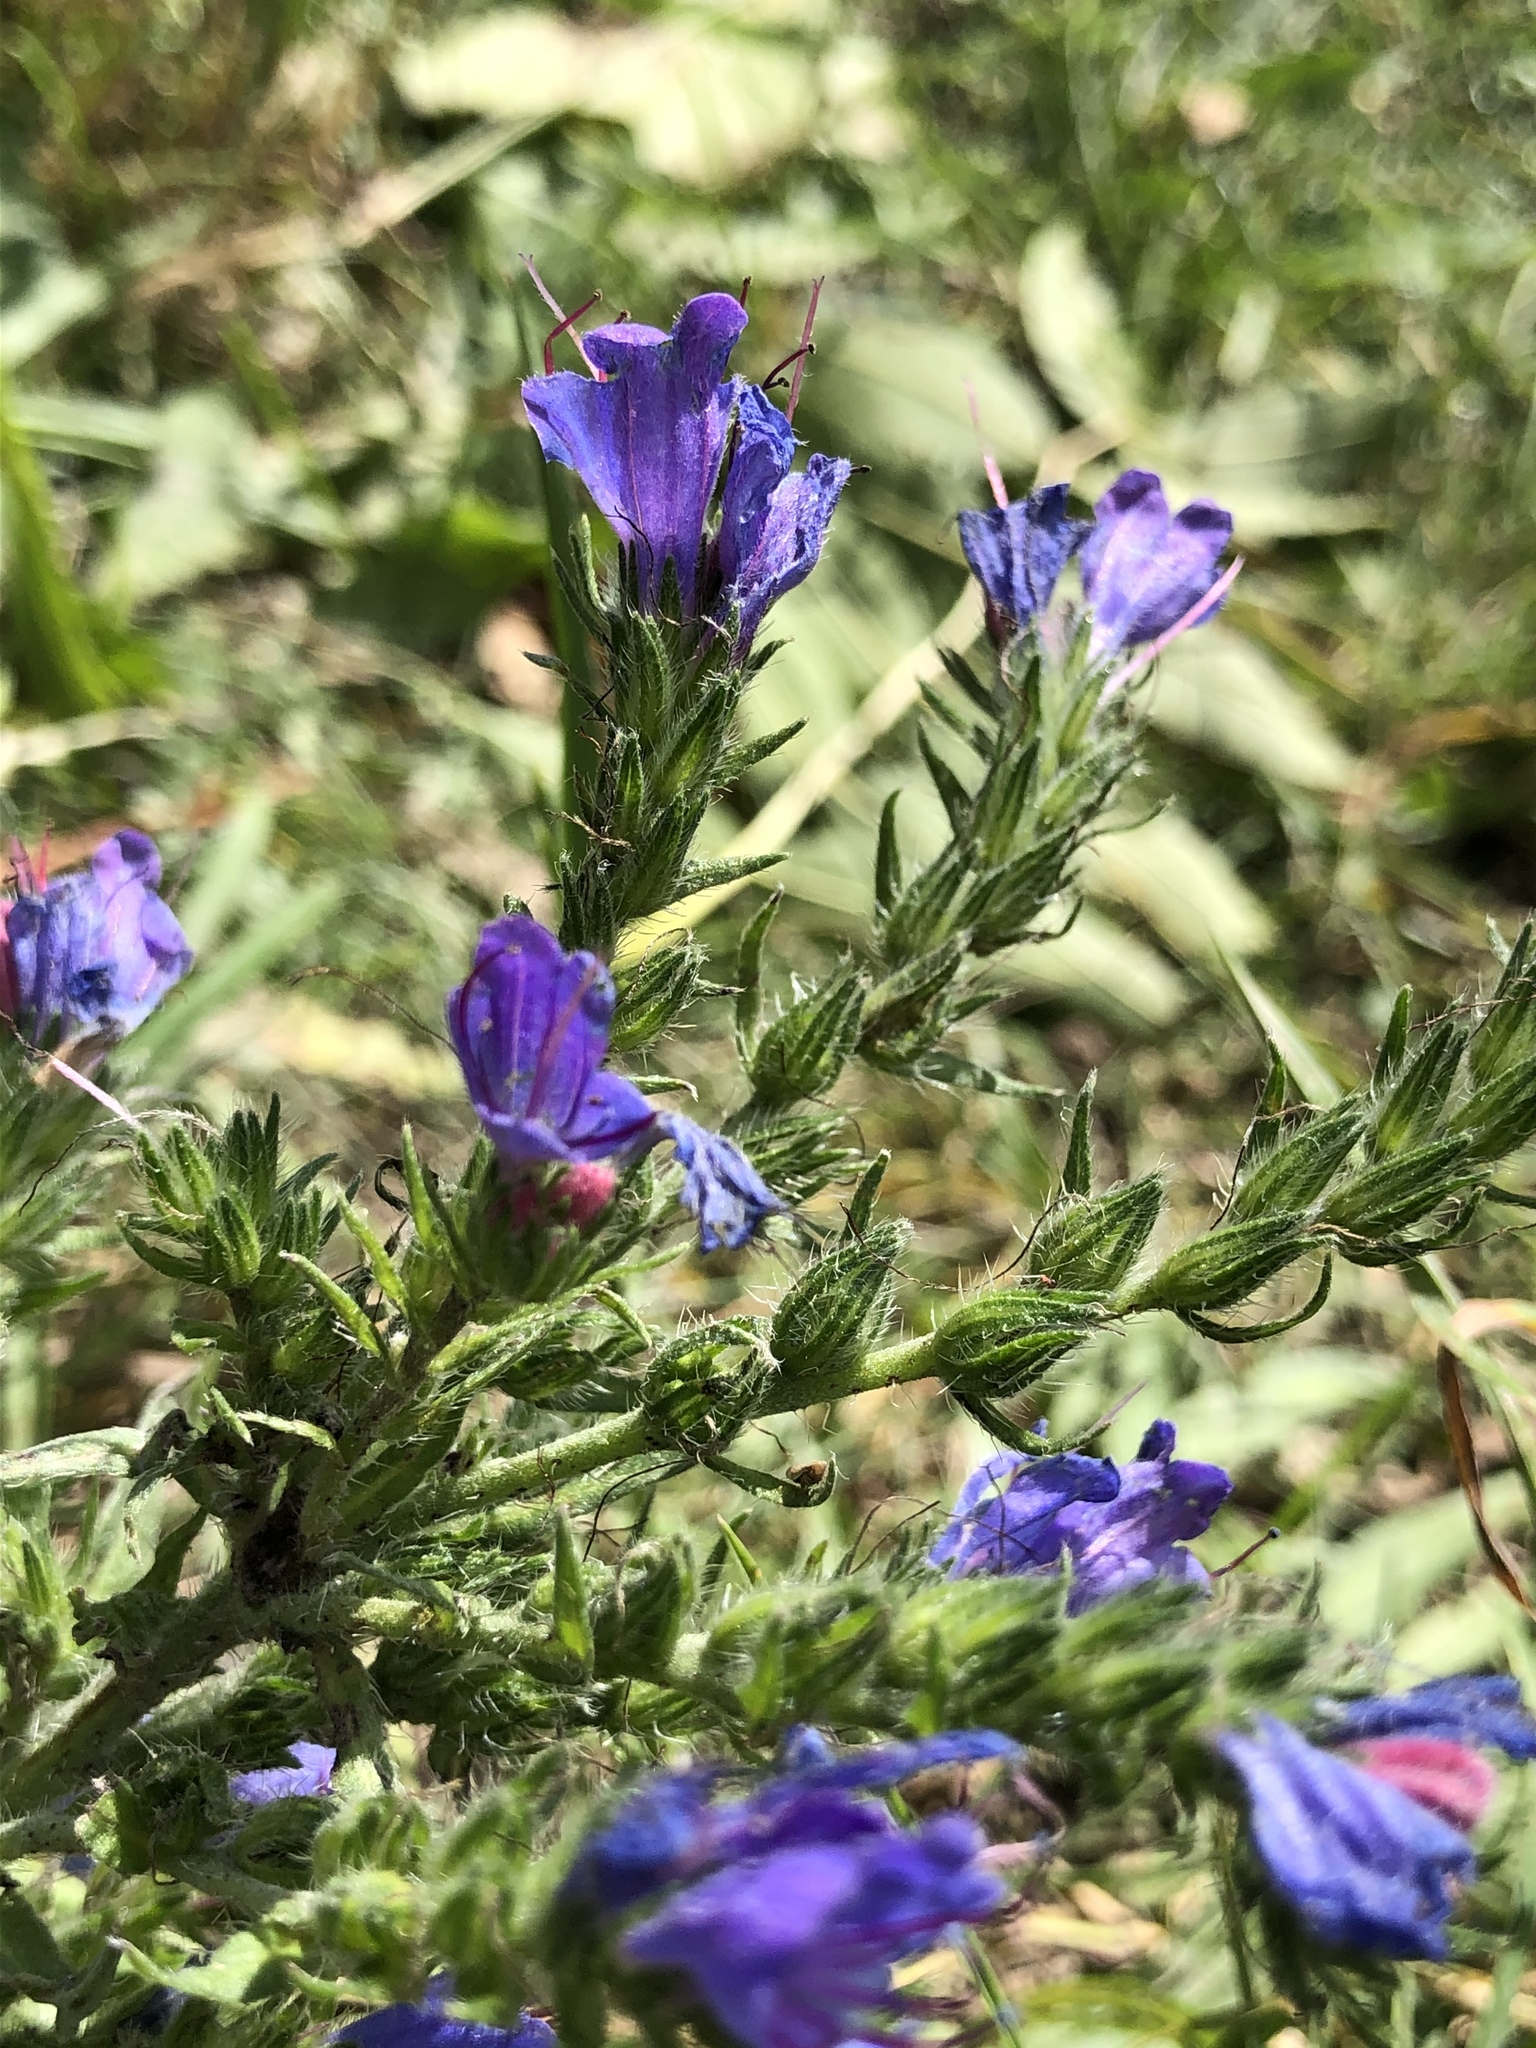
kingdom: Plantae
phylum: Tracheophyta
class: Magnoliopsida
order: Boraginales
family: Boraginaceae
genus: Echium
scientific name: Echium vulgare
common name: Common viper's bugloss
